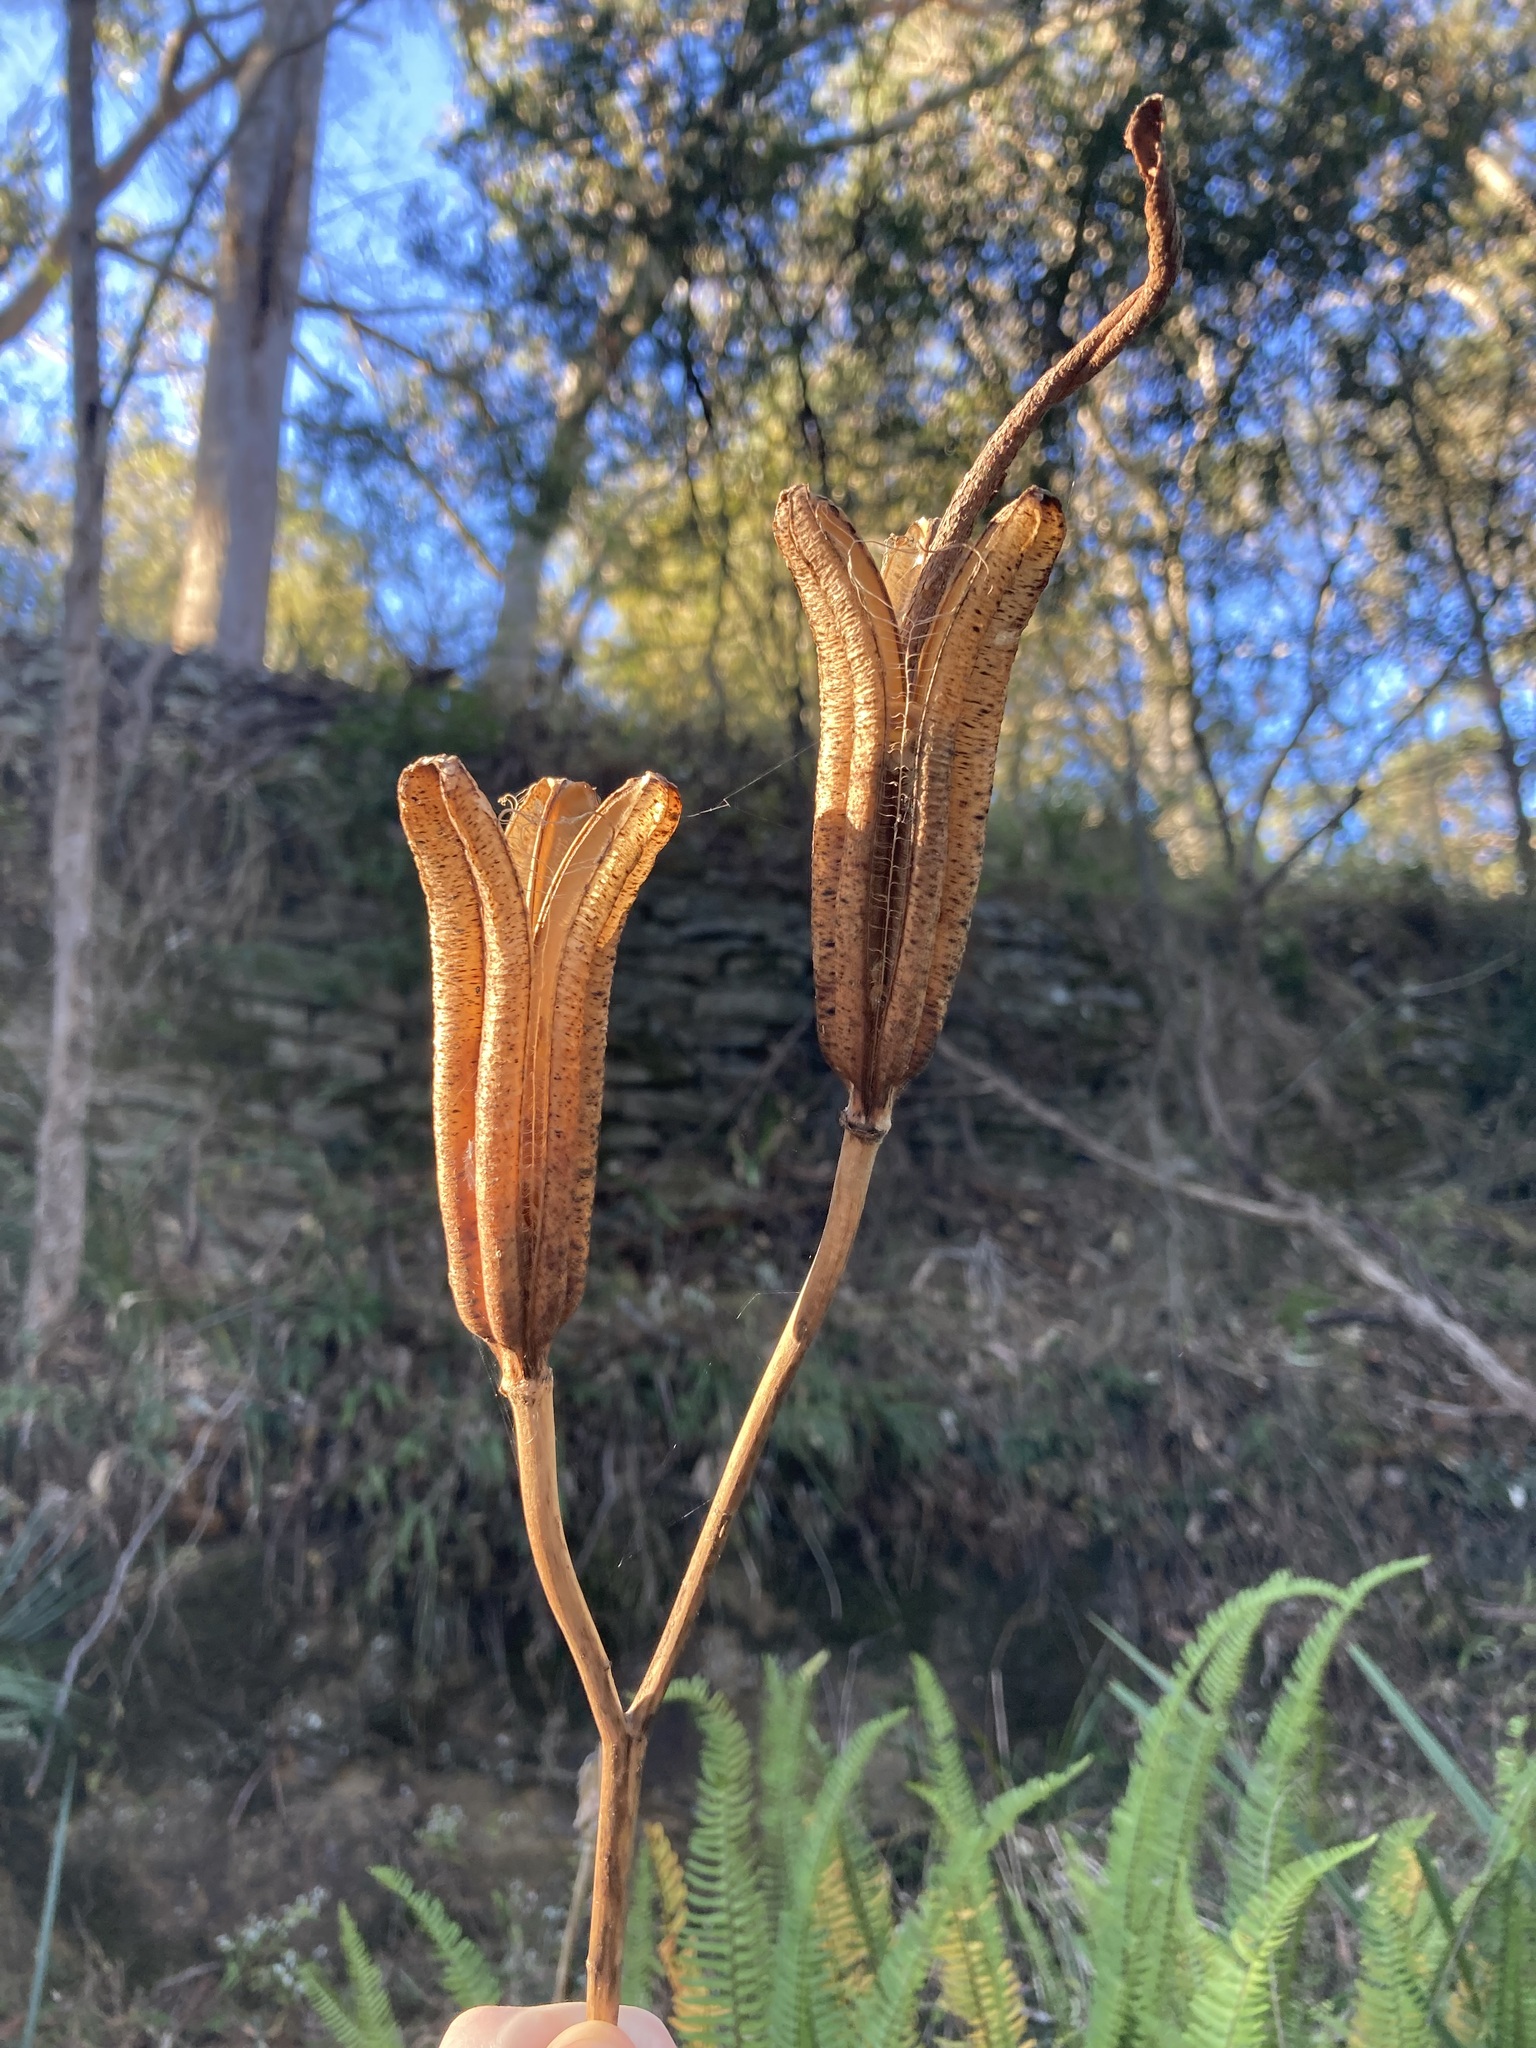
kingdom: Plantae
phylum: Tracheophyta
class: Liliopsida
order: Liliales
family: Liliaceae
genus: Lilium
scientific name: Lilium formosanum
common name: Formosa lily
